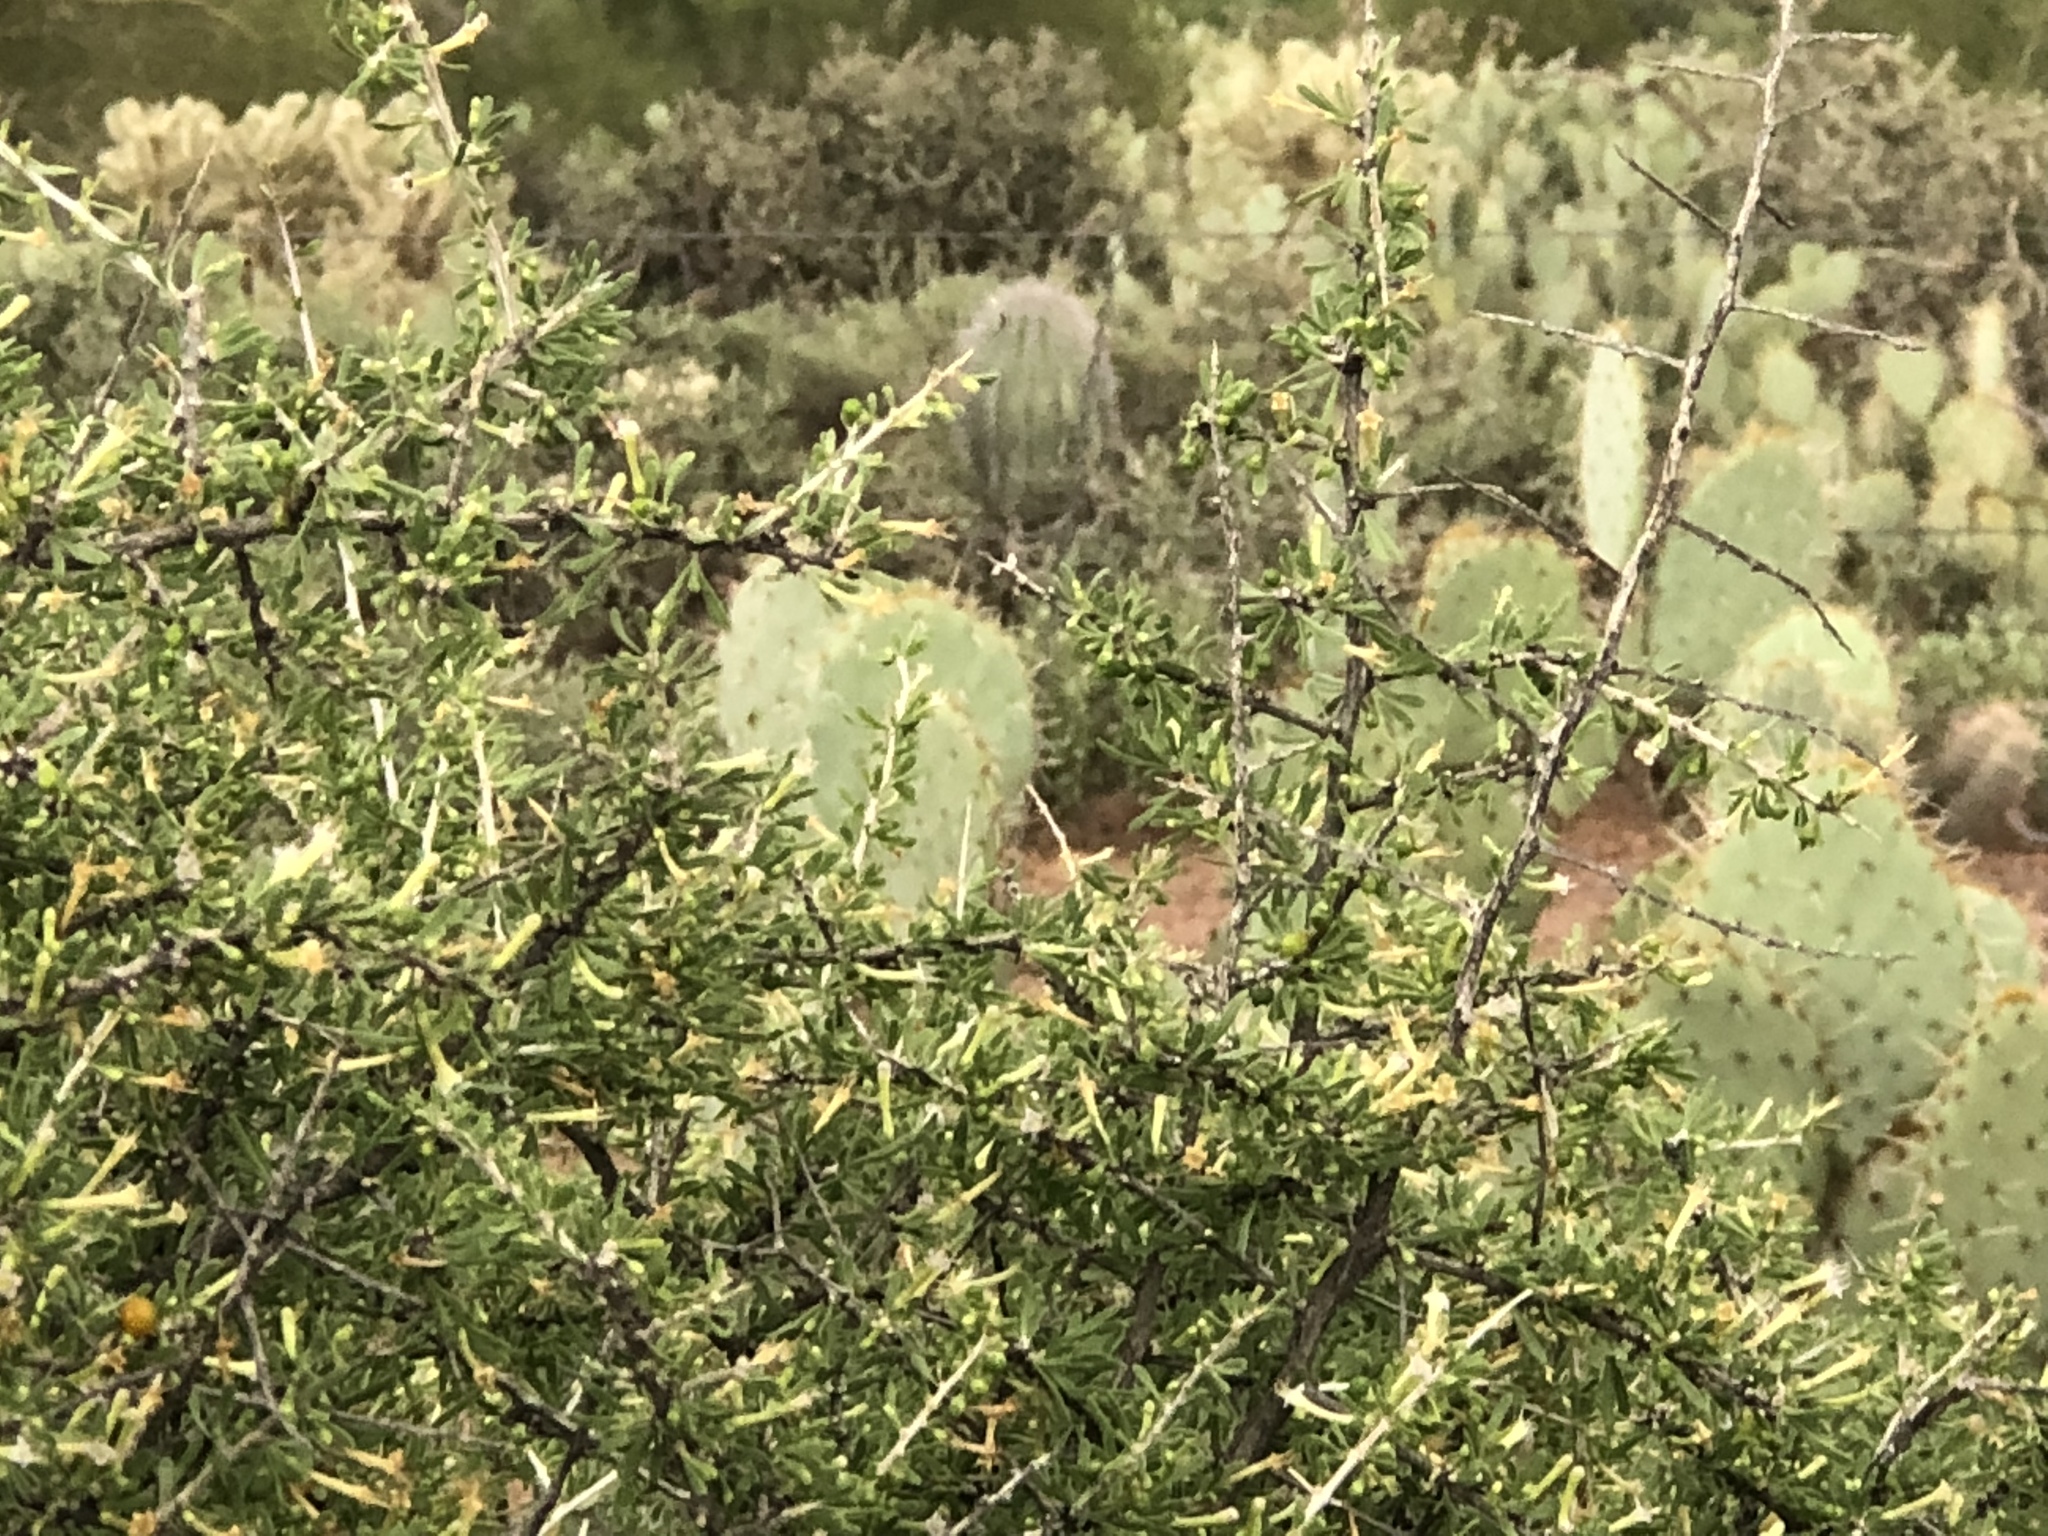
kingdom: Plantae
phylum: Tracheophyta
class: Magnoliopsida
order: Solanales
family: Solanaceae
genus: Lycium
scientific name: Lycium andersonii
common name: Water-jacket
